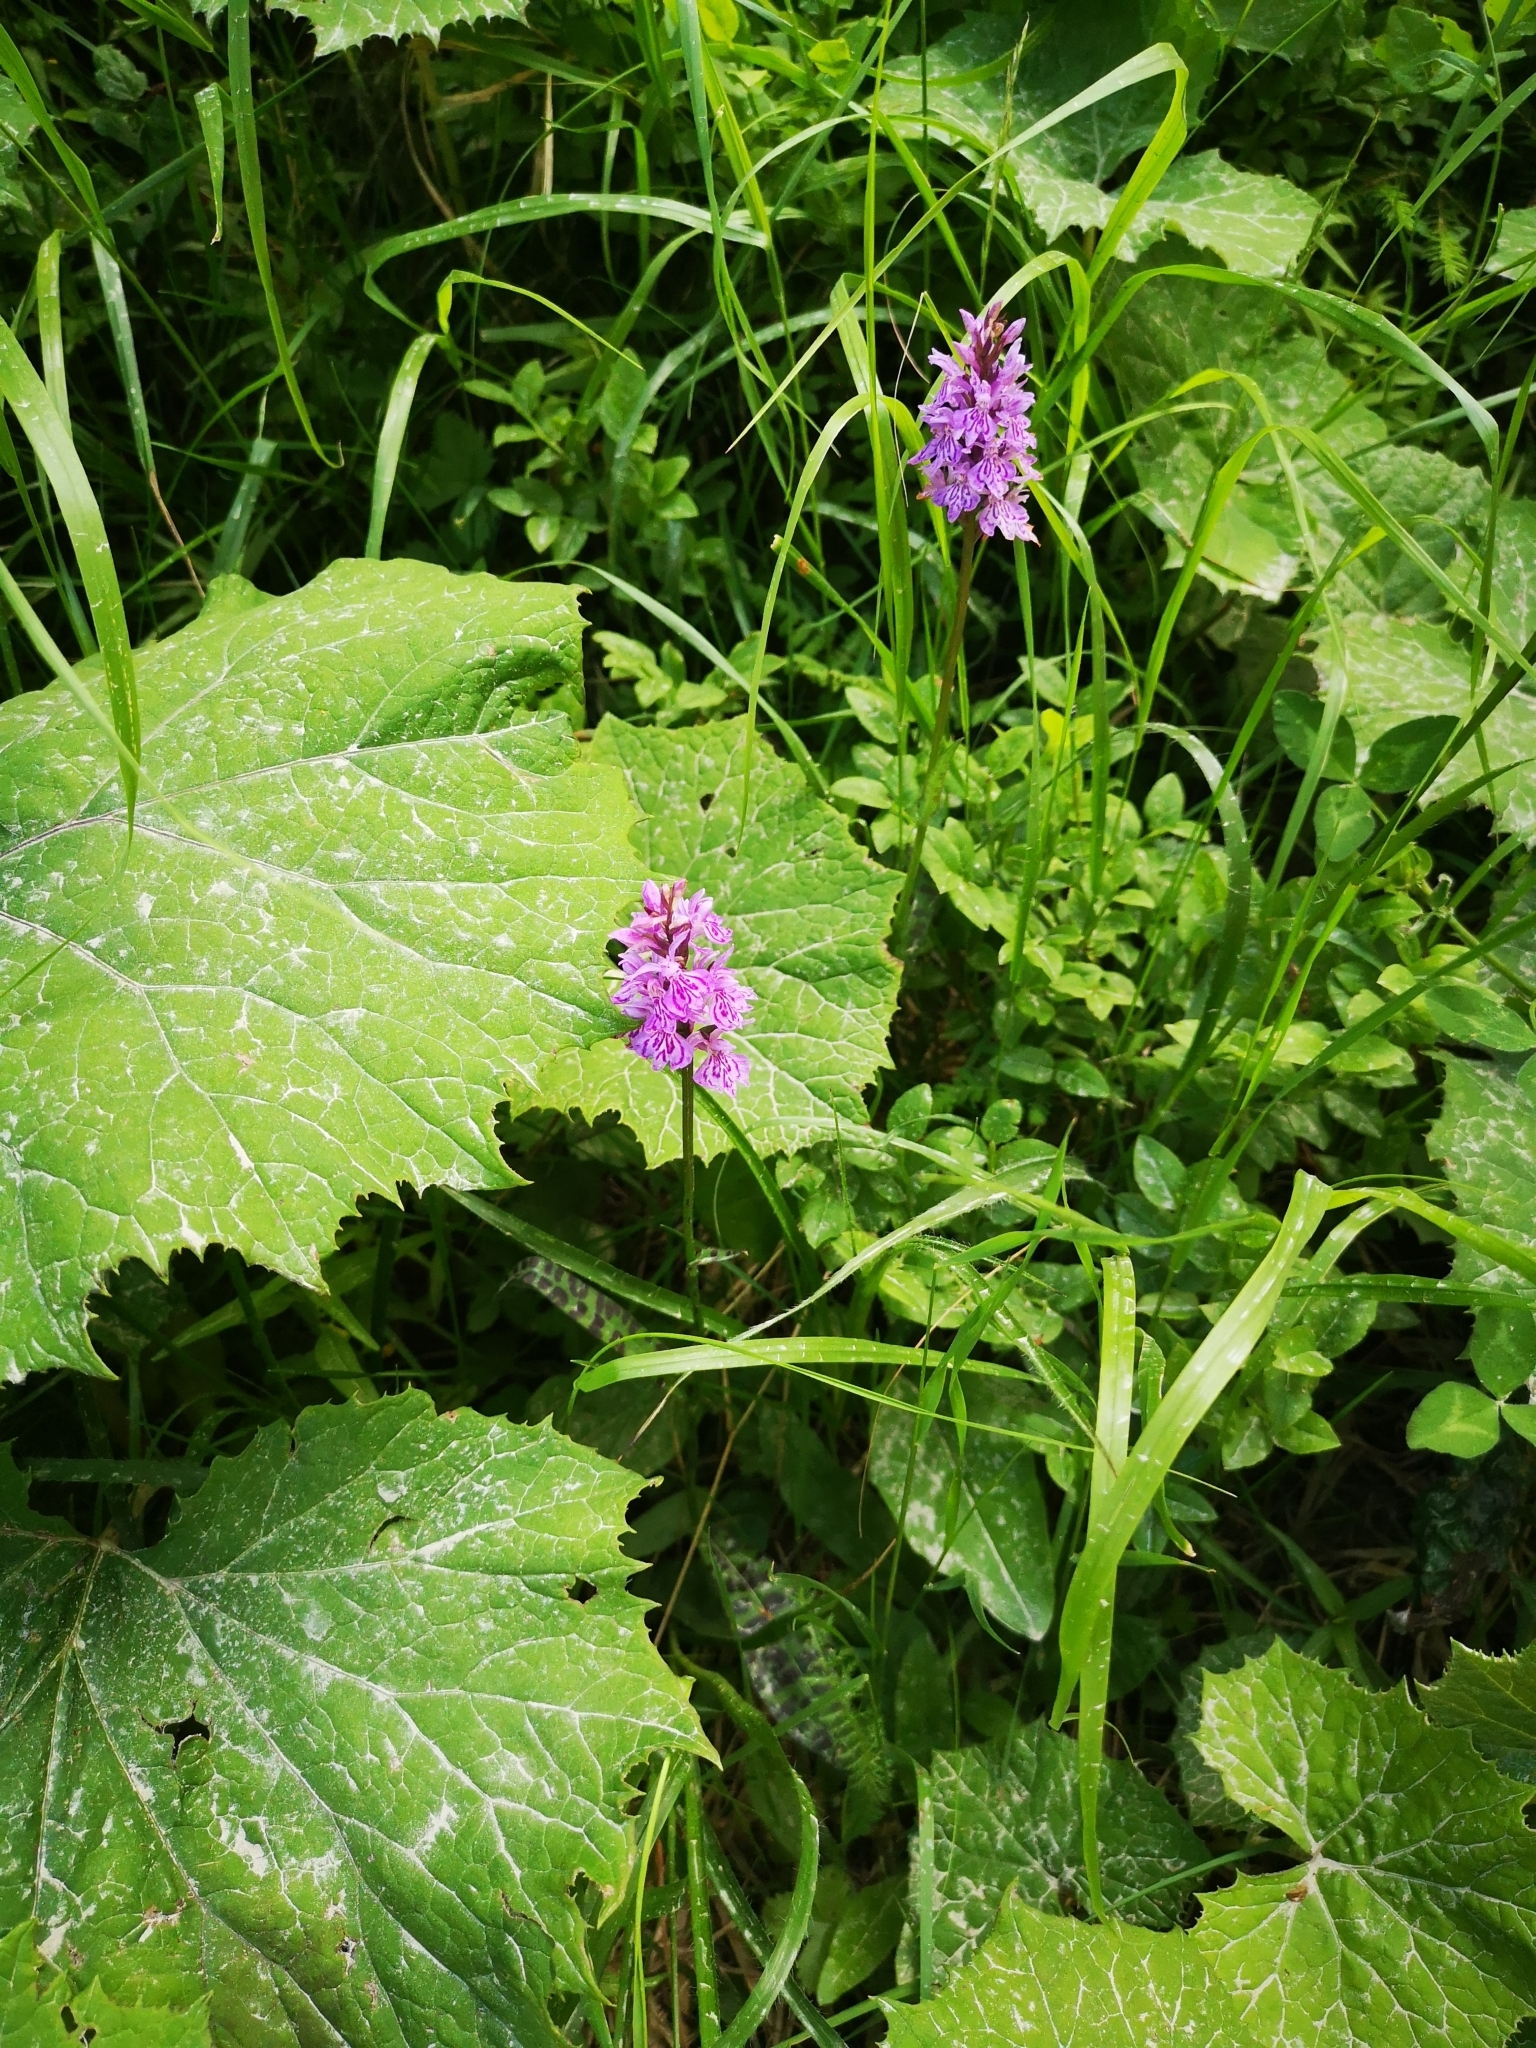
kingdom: Plantae
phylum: Tracheophyta
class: Liliopsida
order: Asparagales
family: Orchidaceae
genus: Dactylorhiza
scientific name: Dactylorhiza maculata
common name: Heath spotted-orchid
